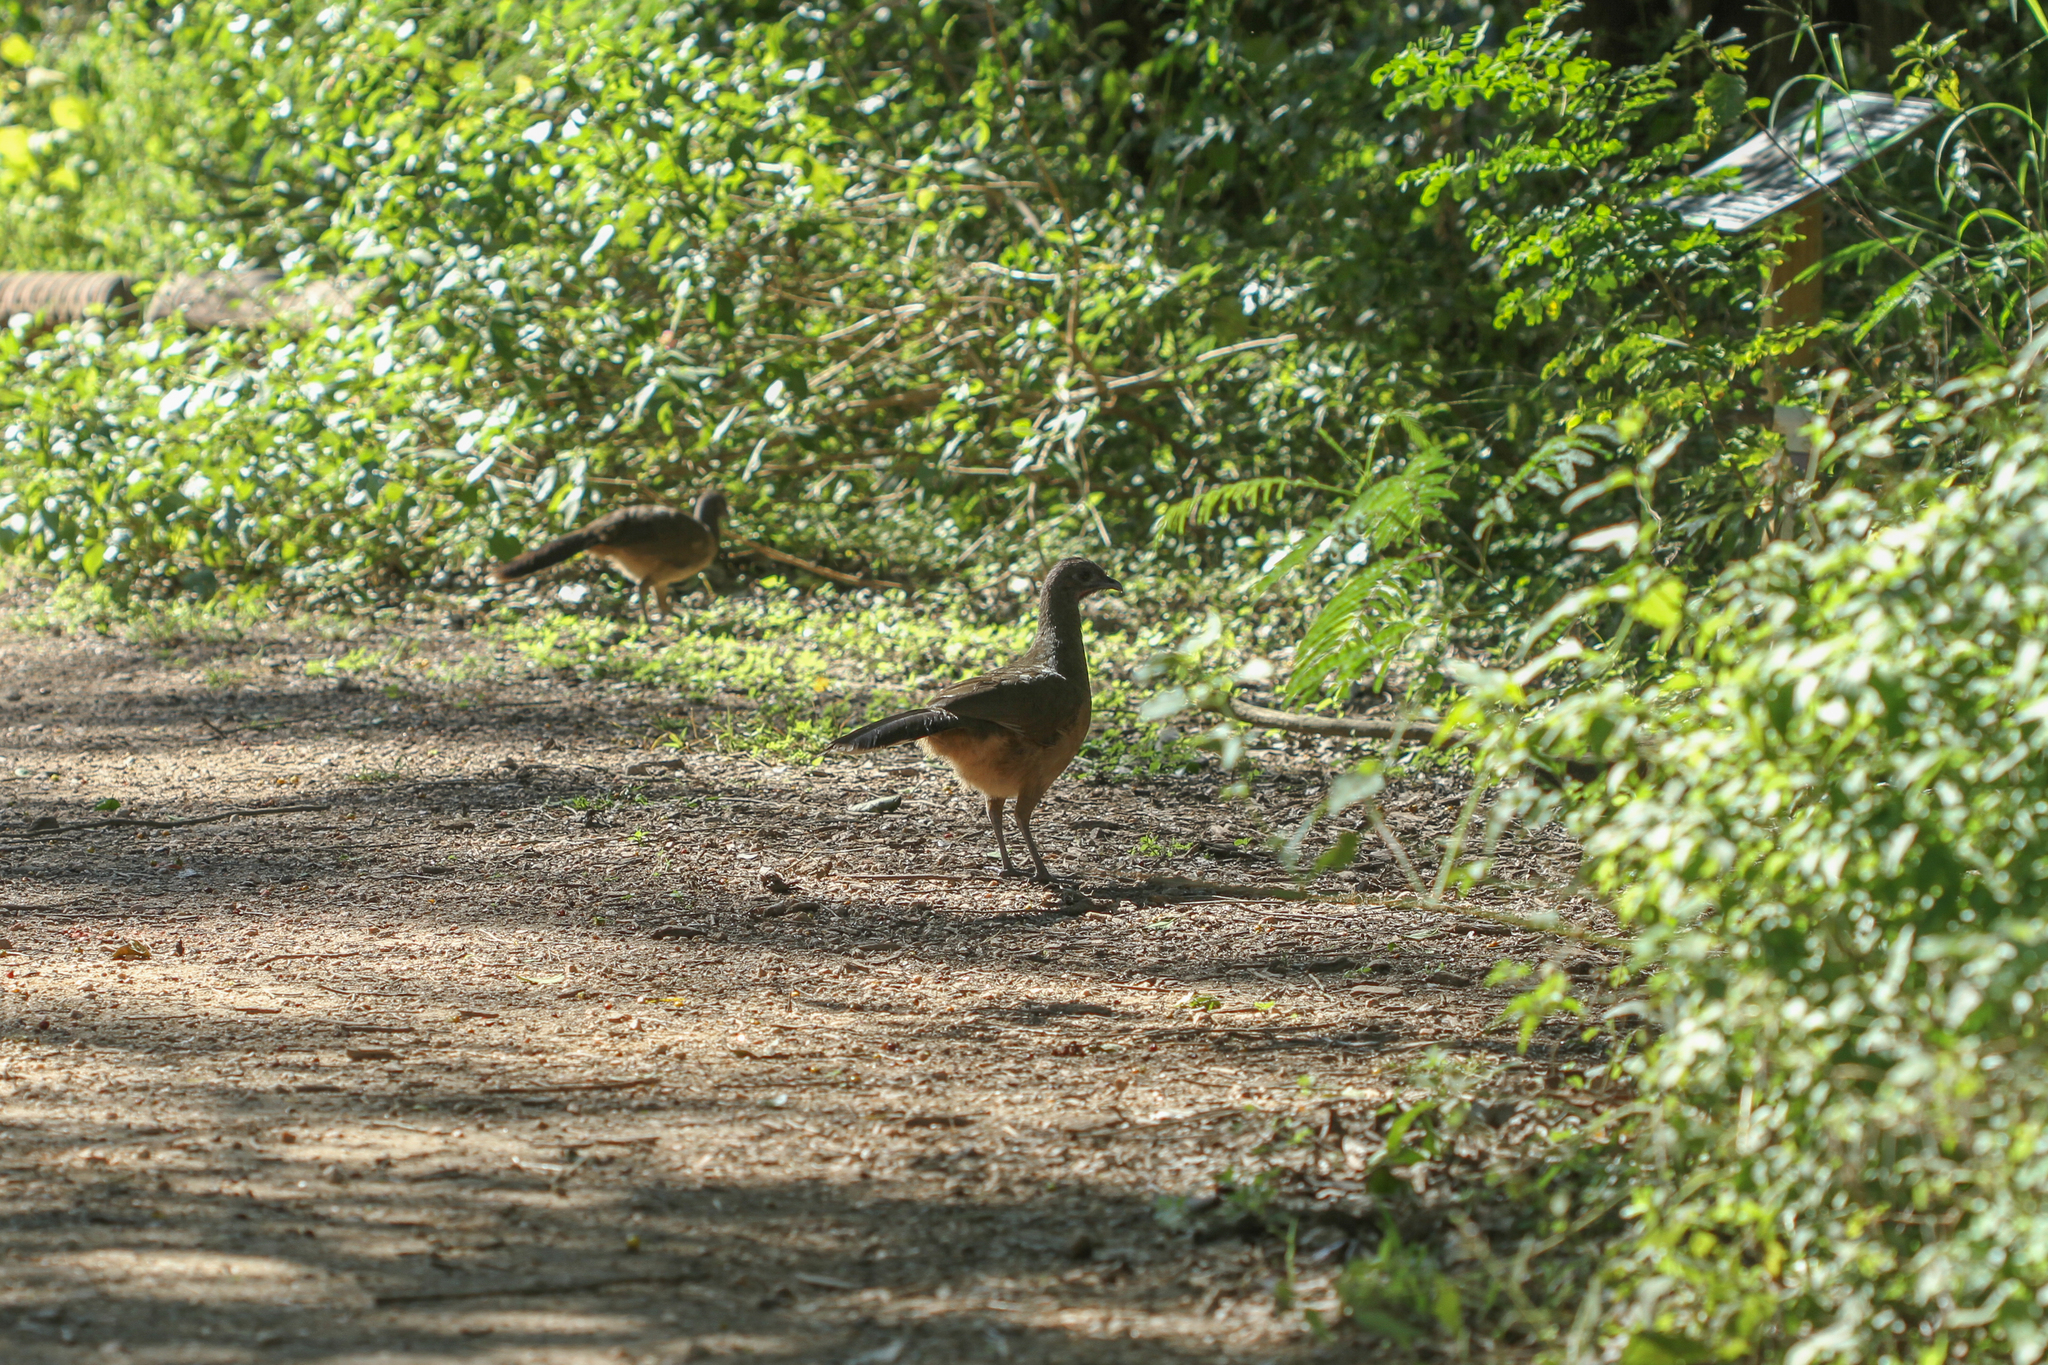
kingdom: Animalia
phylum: Chordata
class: Aves
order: Galliformes
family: Cracidae
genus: Ortalis
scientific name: Ortalis vetula
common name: Plain chachalaca
